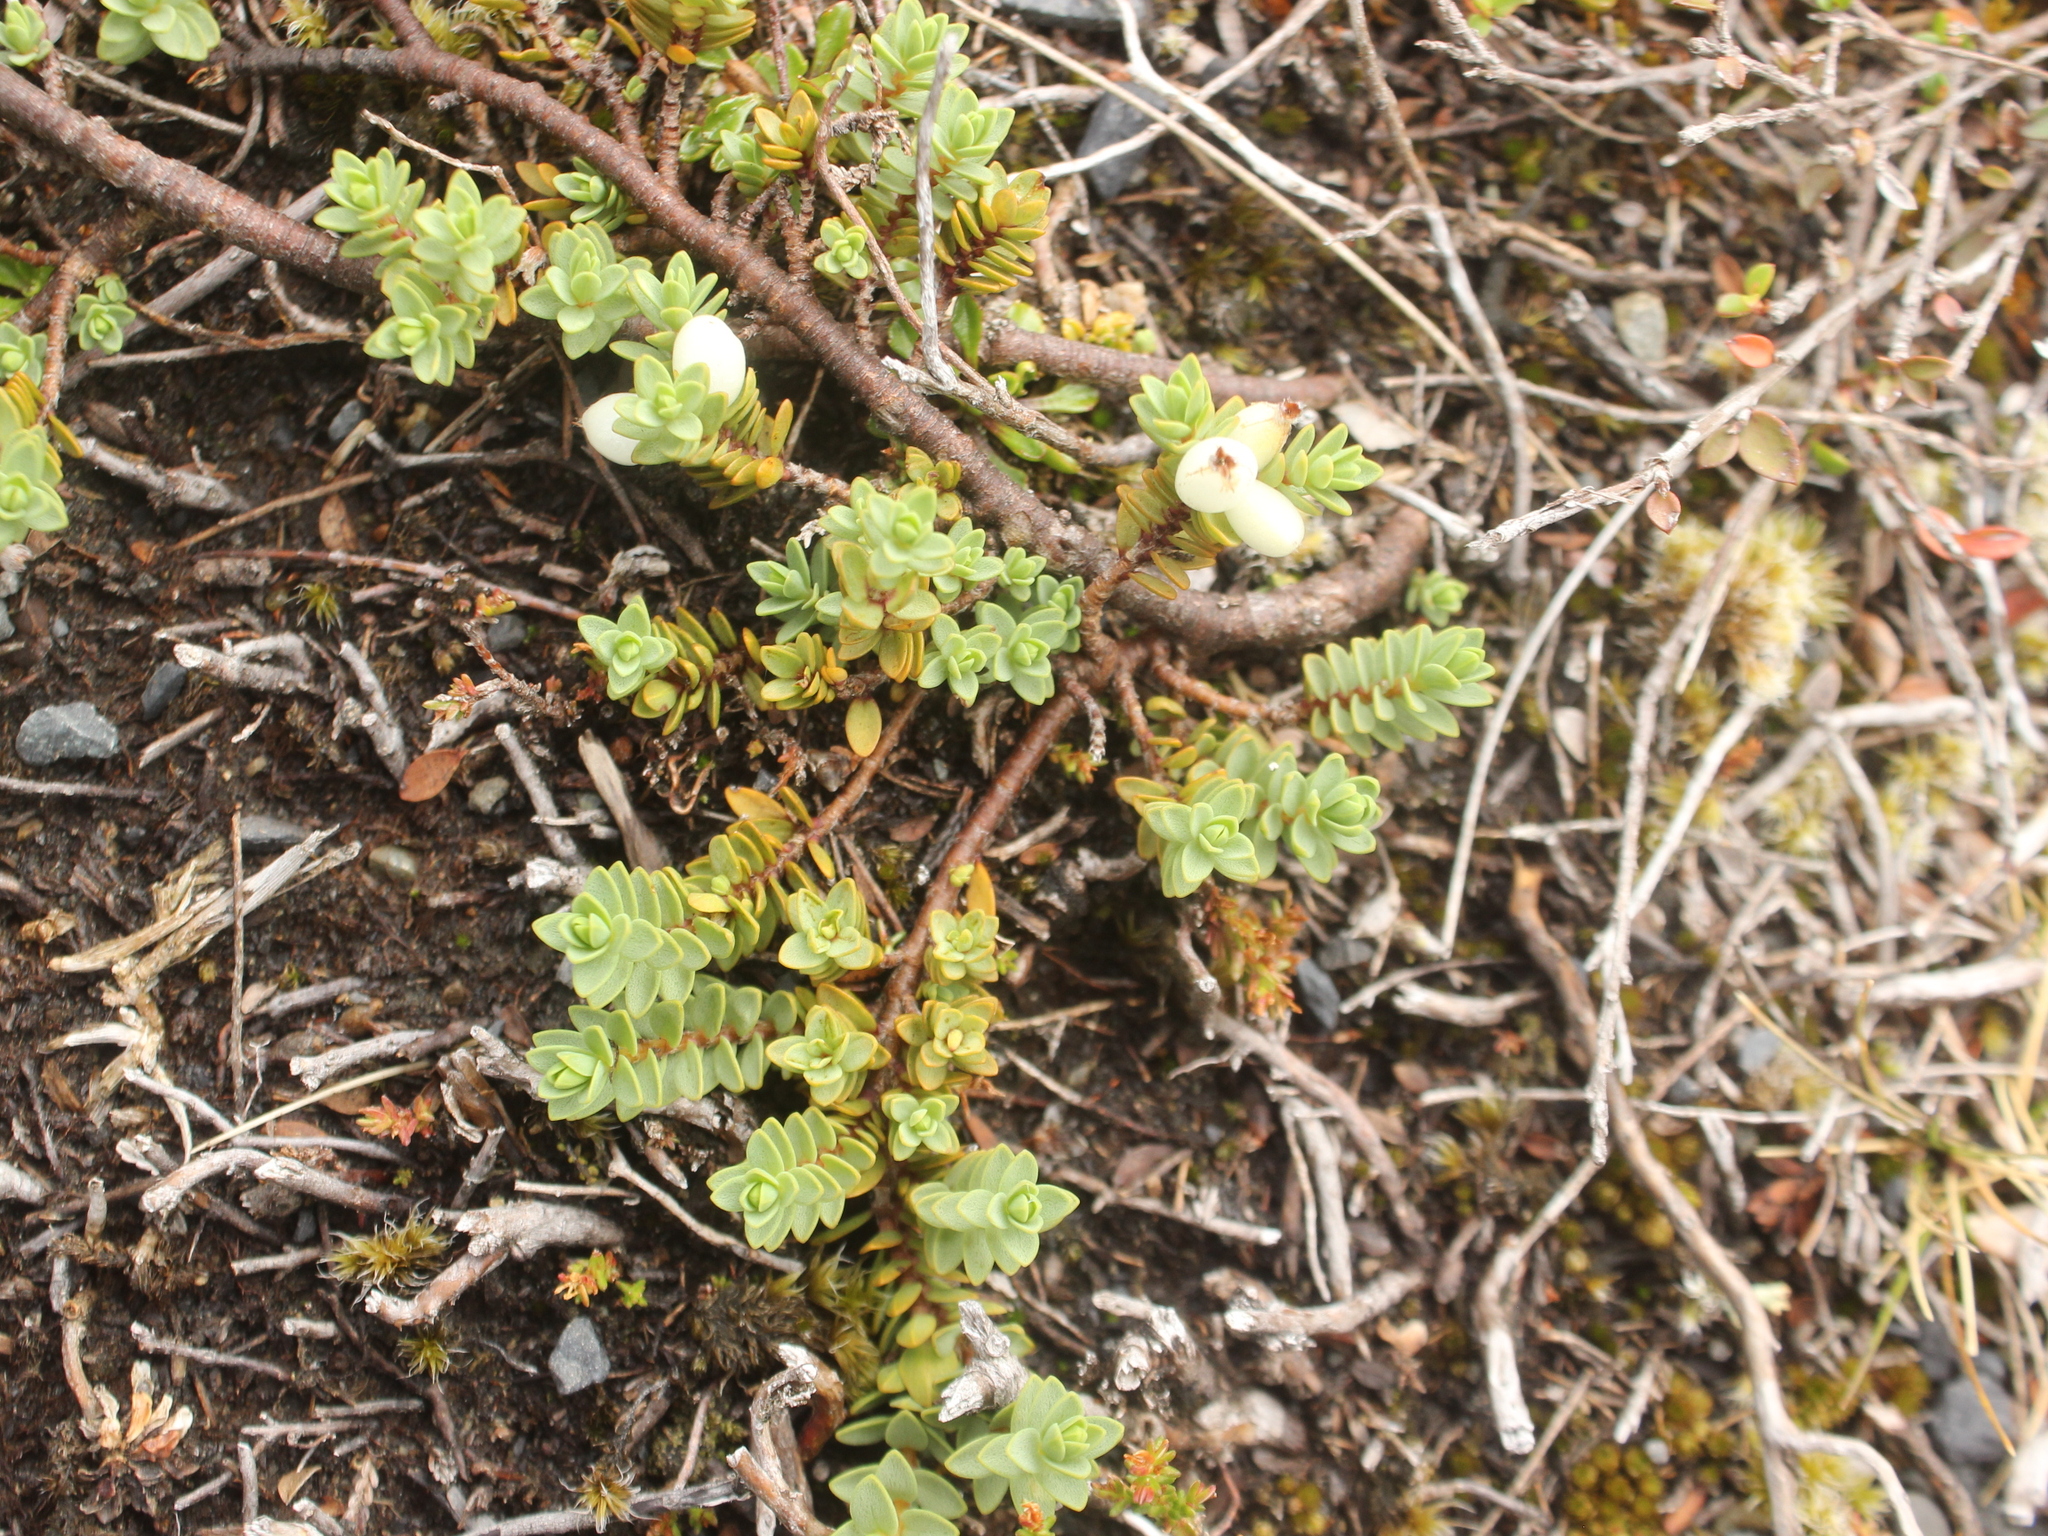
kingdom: Plantae
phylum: Tracheophyta
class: Magnoliopsida
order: Malvales
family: Thymelaeaceae
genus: Pimelea
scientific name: Pimelea microphylla
